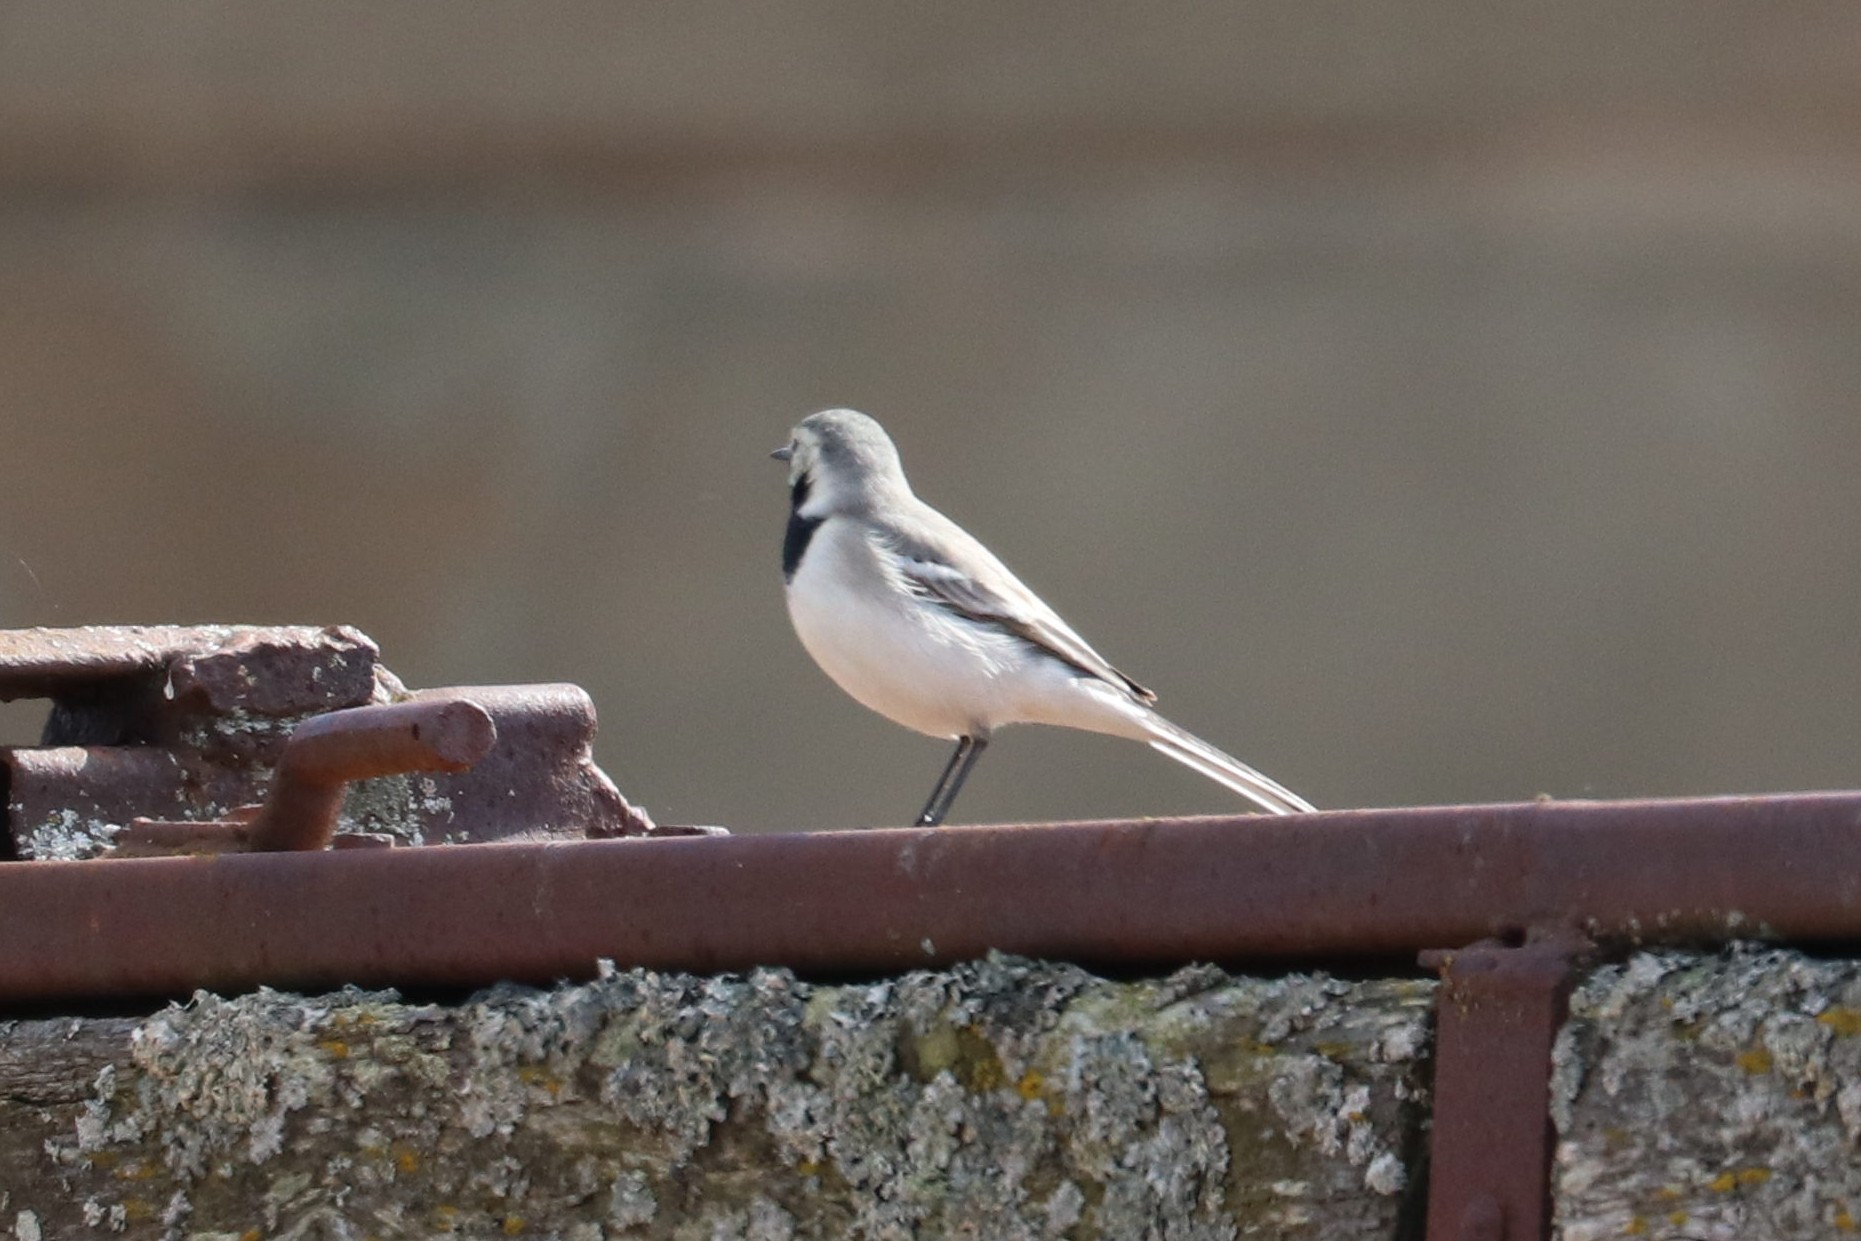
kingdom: Animalia
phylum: Chordata
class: Aves
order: Passeriformes
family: Motacillidae
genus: Motacilla
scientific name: Motacilla alba
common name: White wagtail
